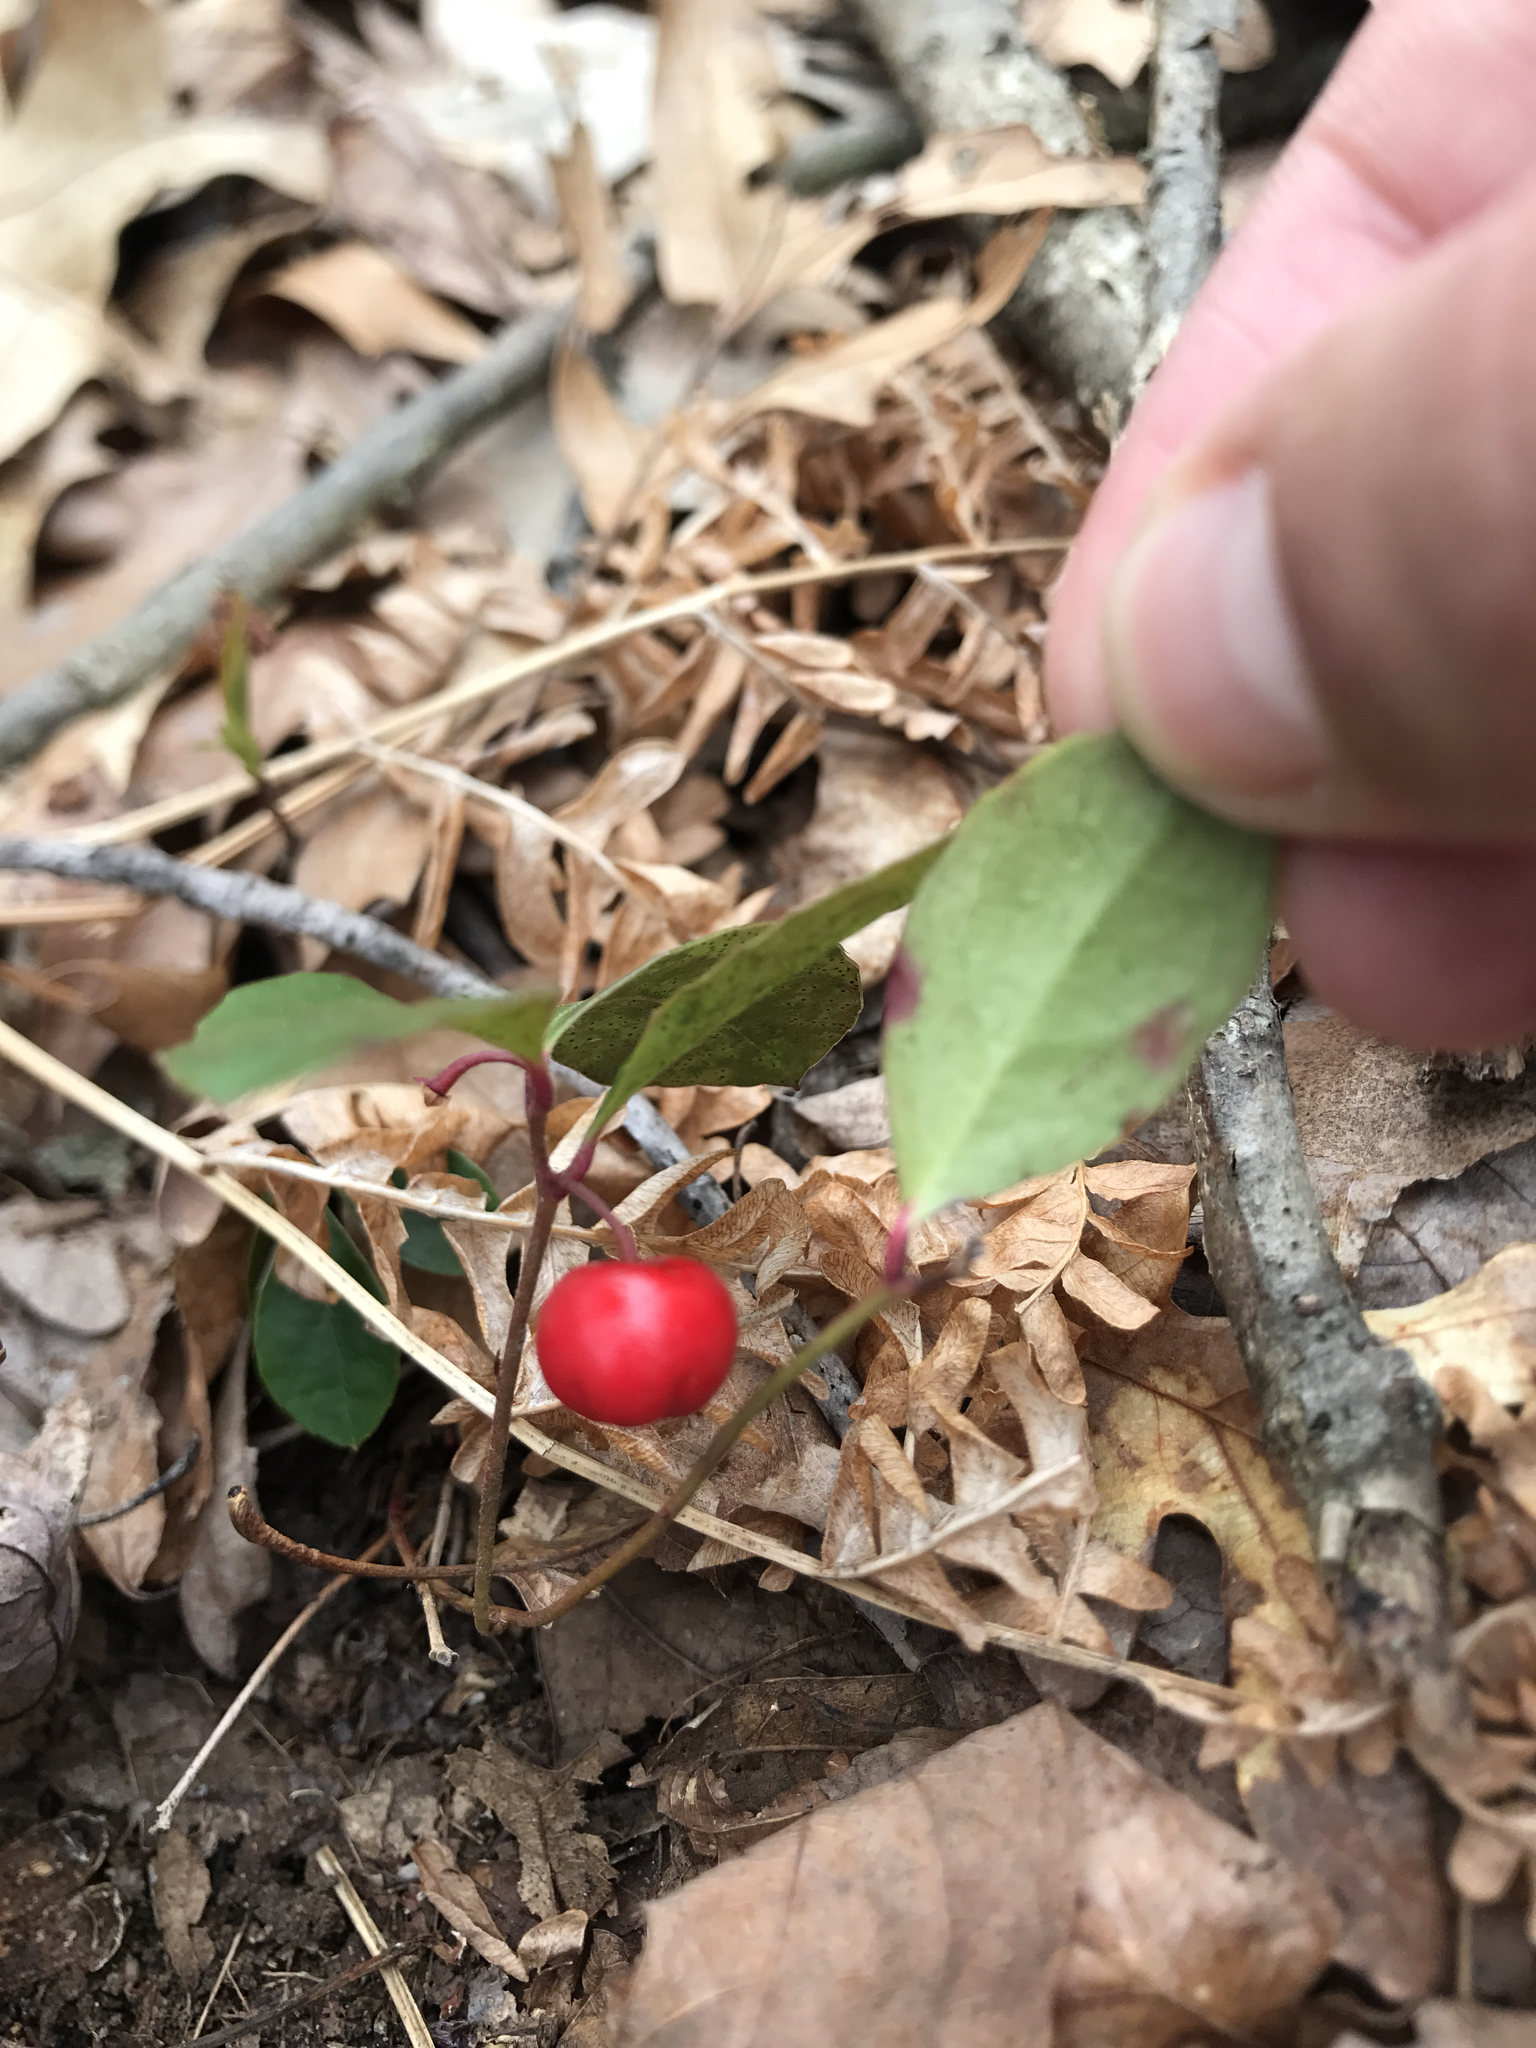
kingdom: Plantae
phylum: Tracheophyta
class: Magnoliopsida
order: Ericales
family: Ericaceae
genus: Gaultheria
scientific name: Gaultheria procumbens
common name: Checkerberry
